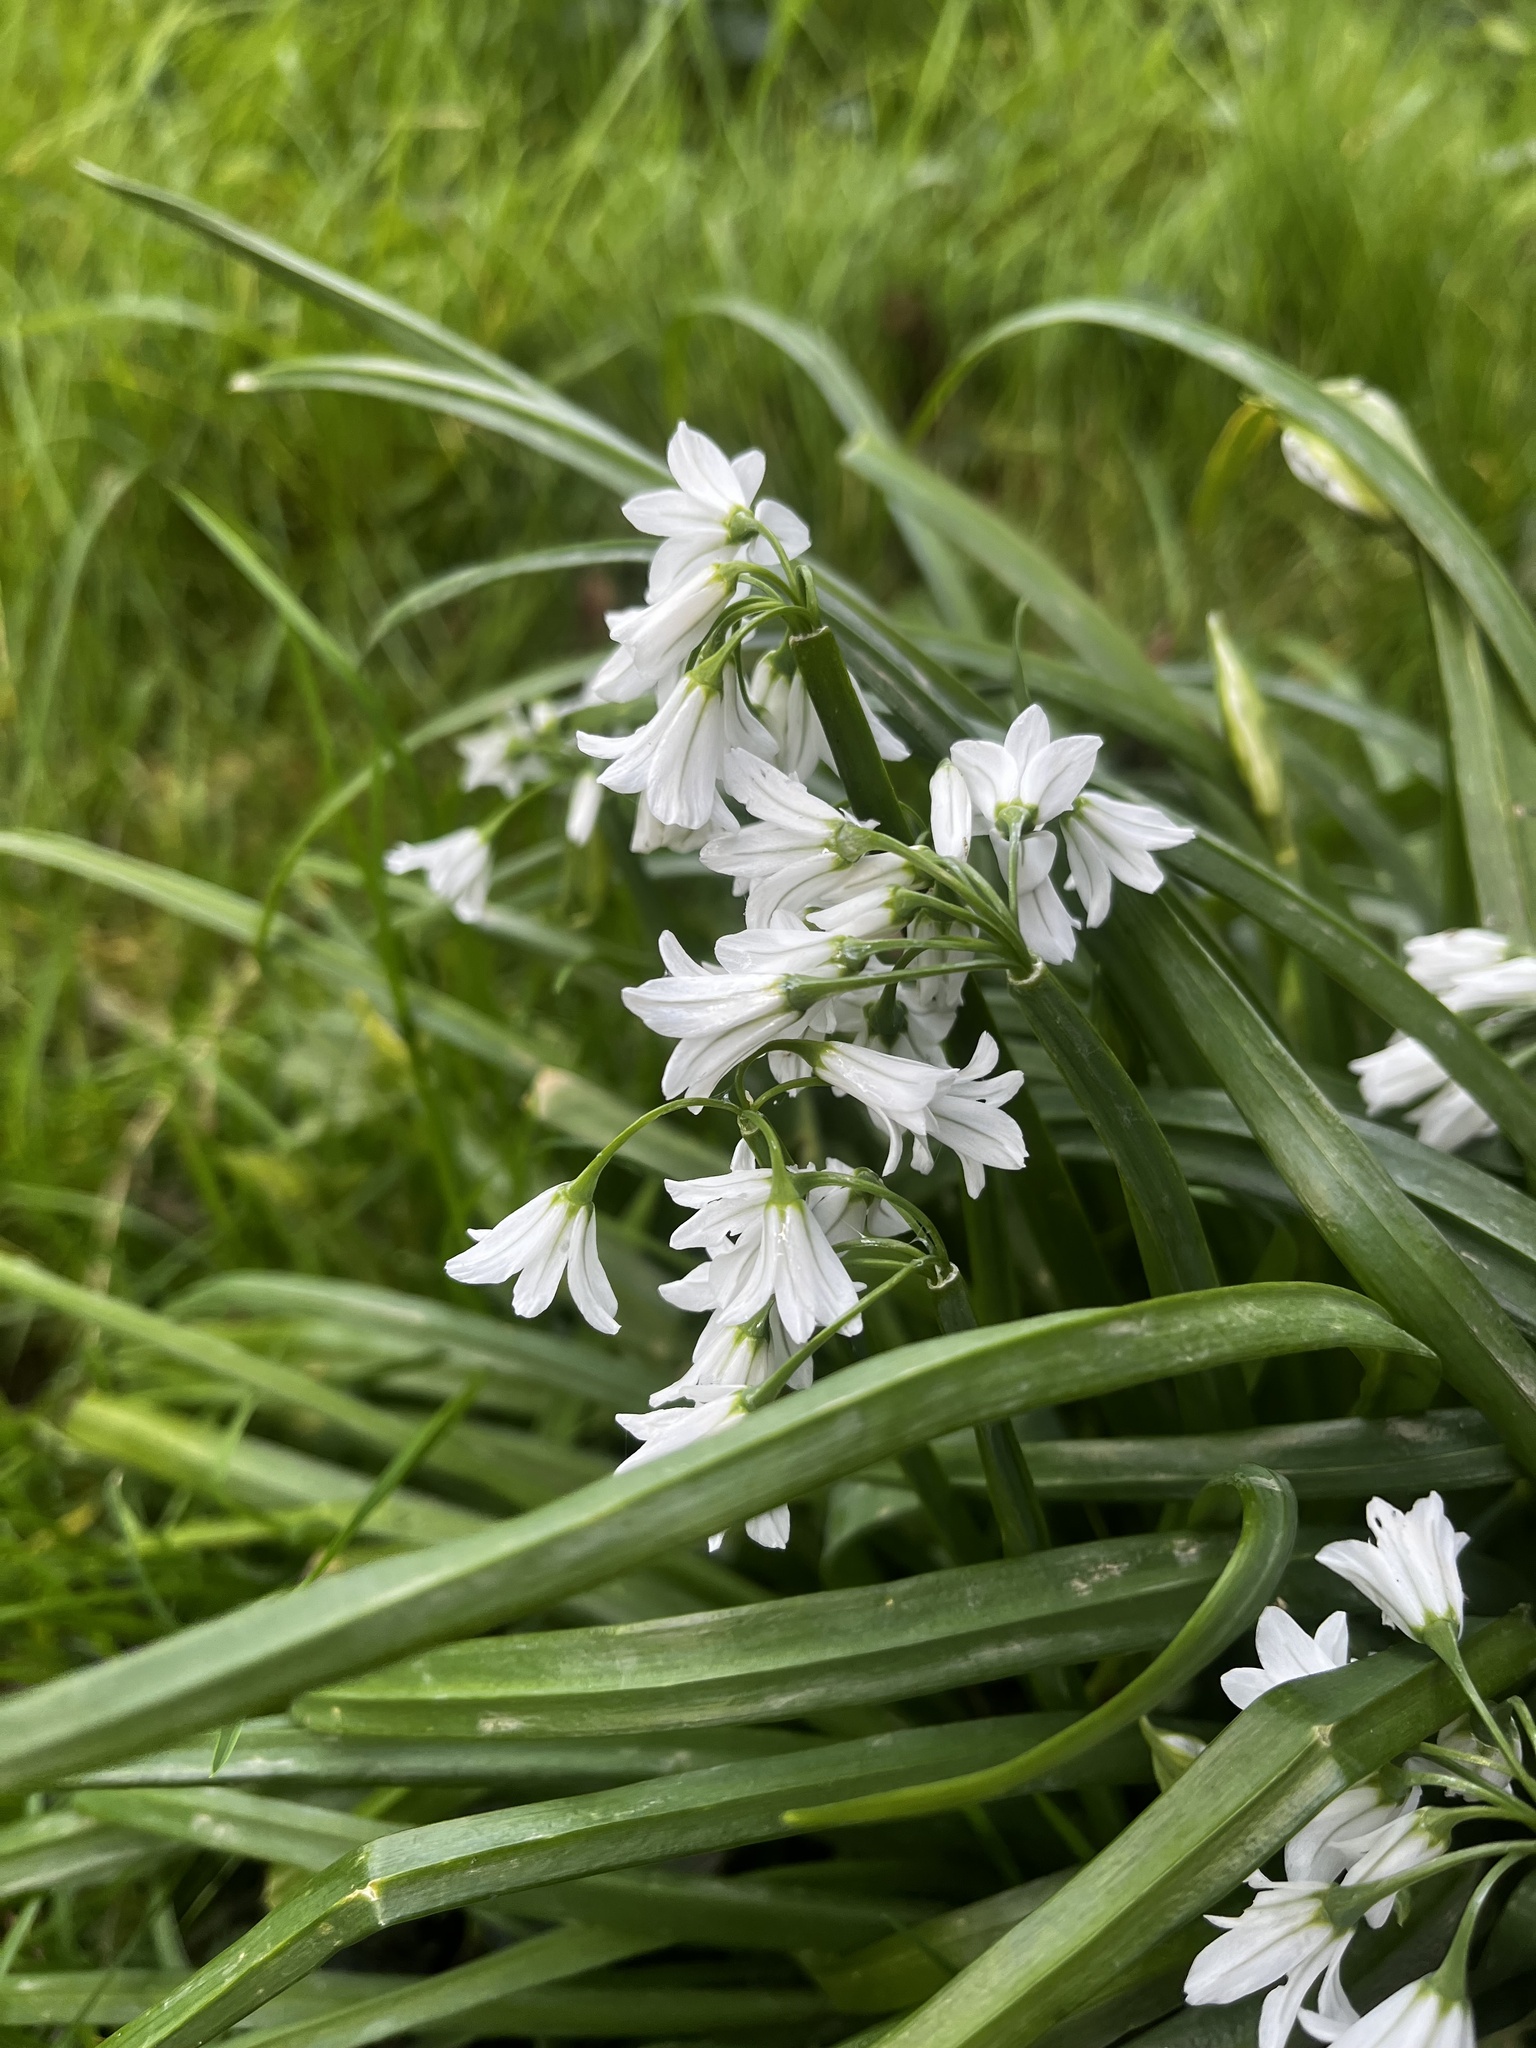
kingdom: Plantae
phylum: Tracheophyta
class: Liliopsida
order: Asparagales
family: Amaryllidaceae
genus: Allium
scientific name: Allium triquetrum
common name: Three-cornered garlic
